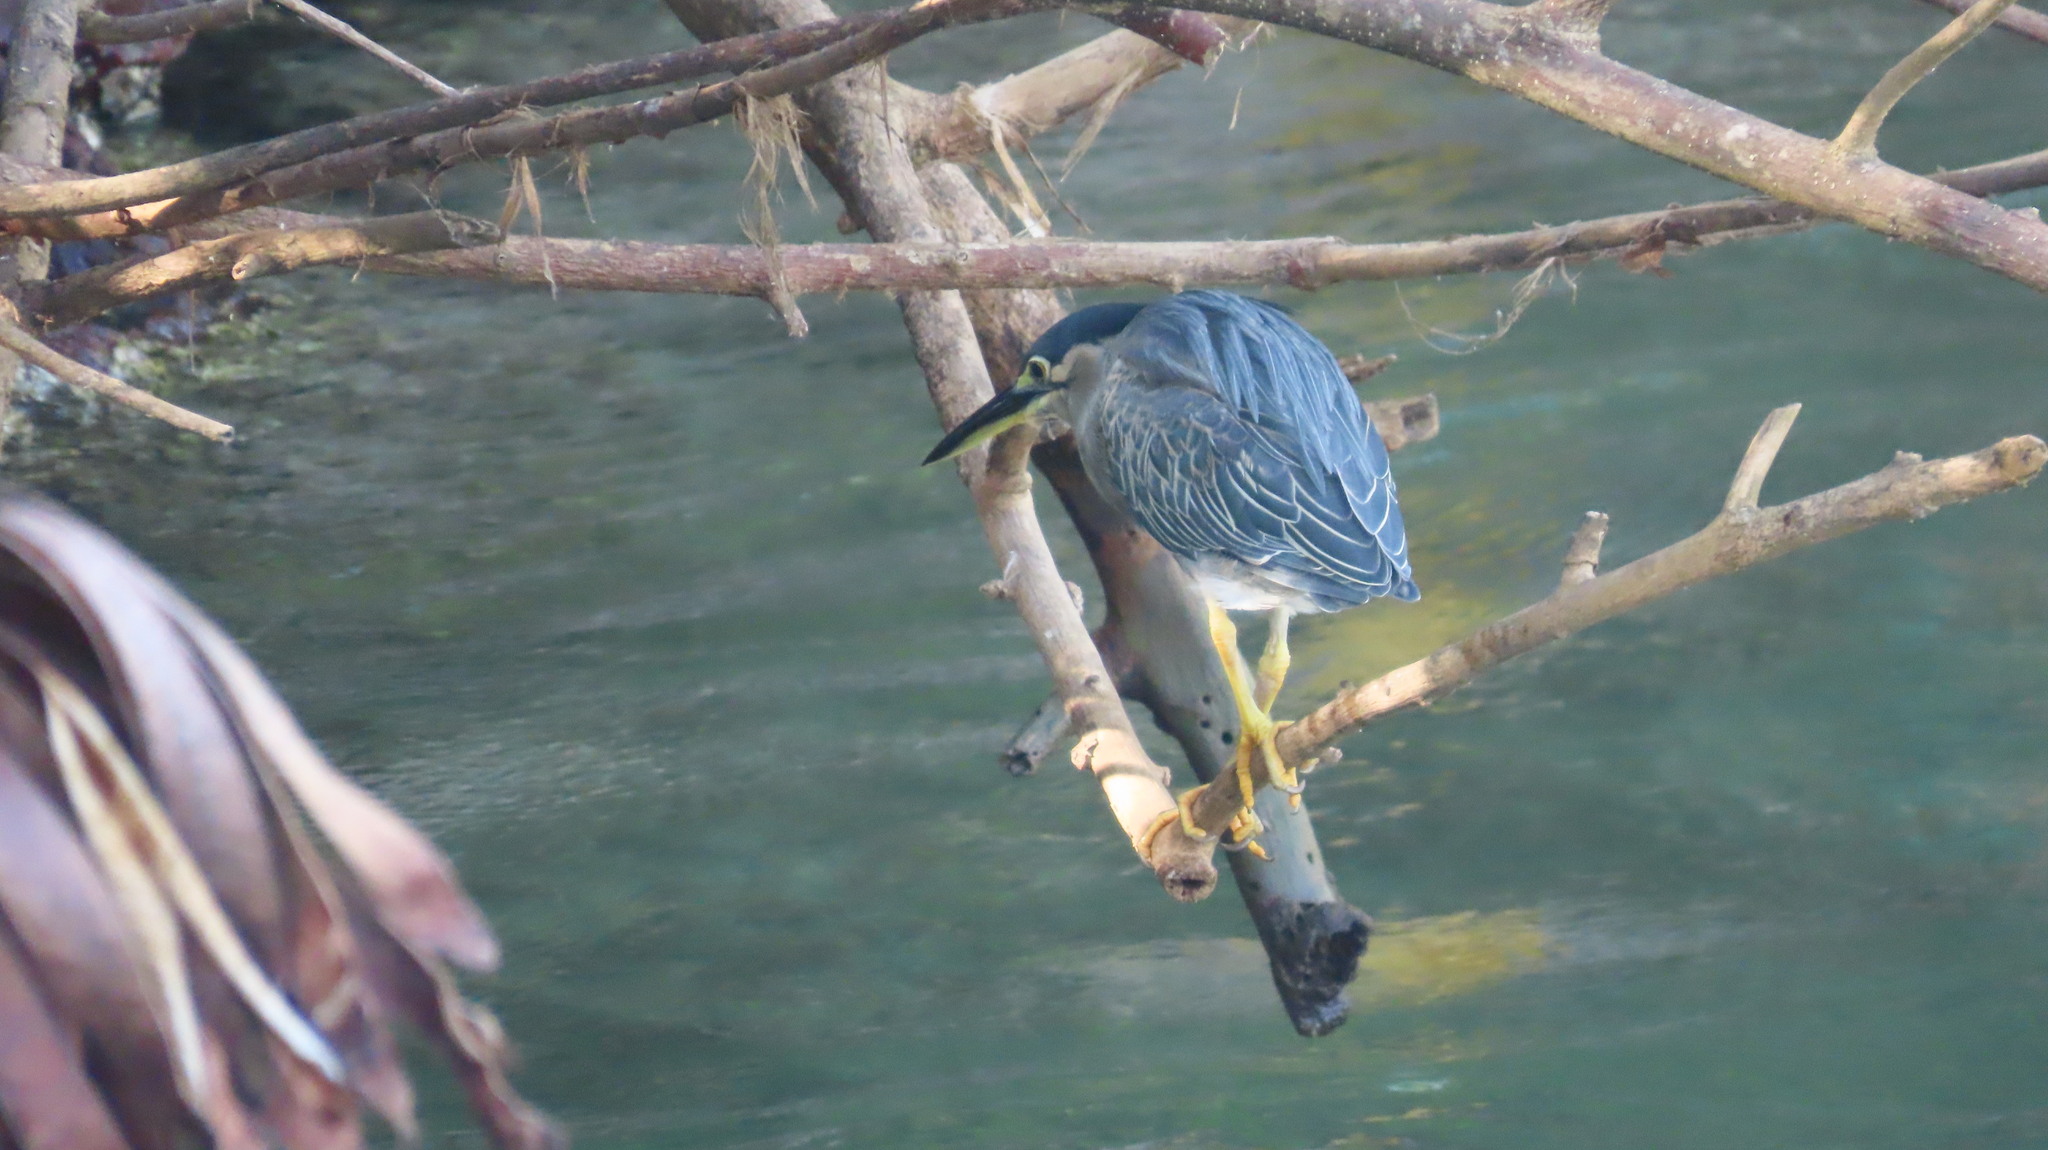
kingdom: Animalia
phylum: Chordata
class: Aves
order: Pelecaniformes
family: Ardeidae
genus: Butorides
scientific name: Butorides striata
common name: Striated heron
